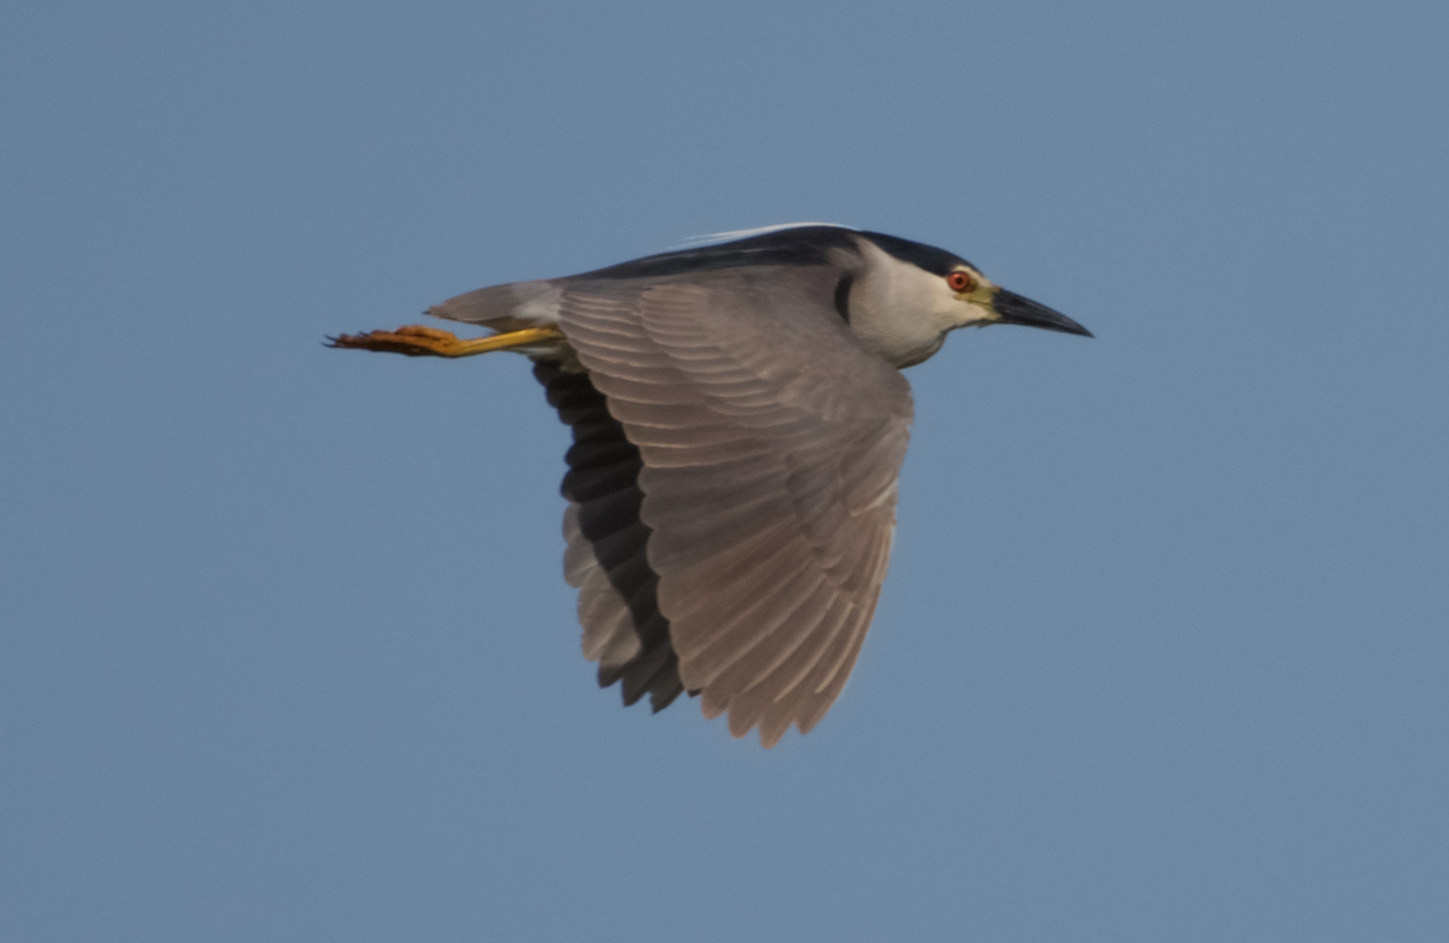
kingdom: Animalia
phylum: Chordata
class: Aves
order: Pelecaniformes
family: Ardeidae
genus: Nycticorax
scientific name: Nycticorax nycticorax
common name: Black-crowned night heron
